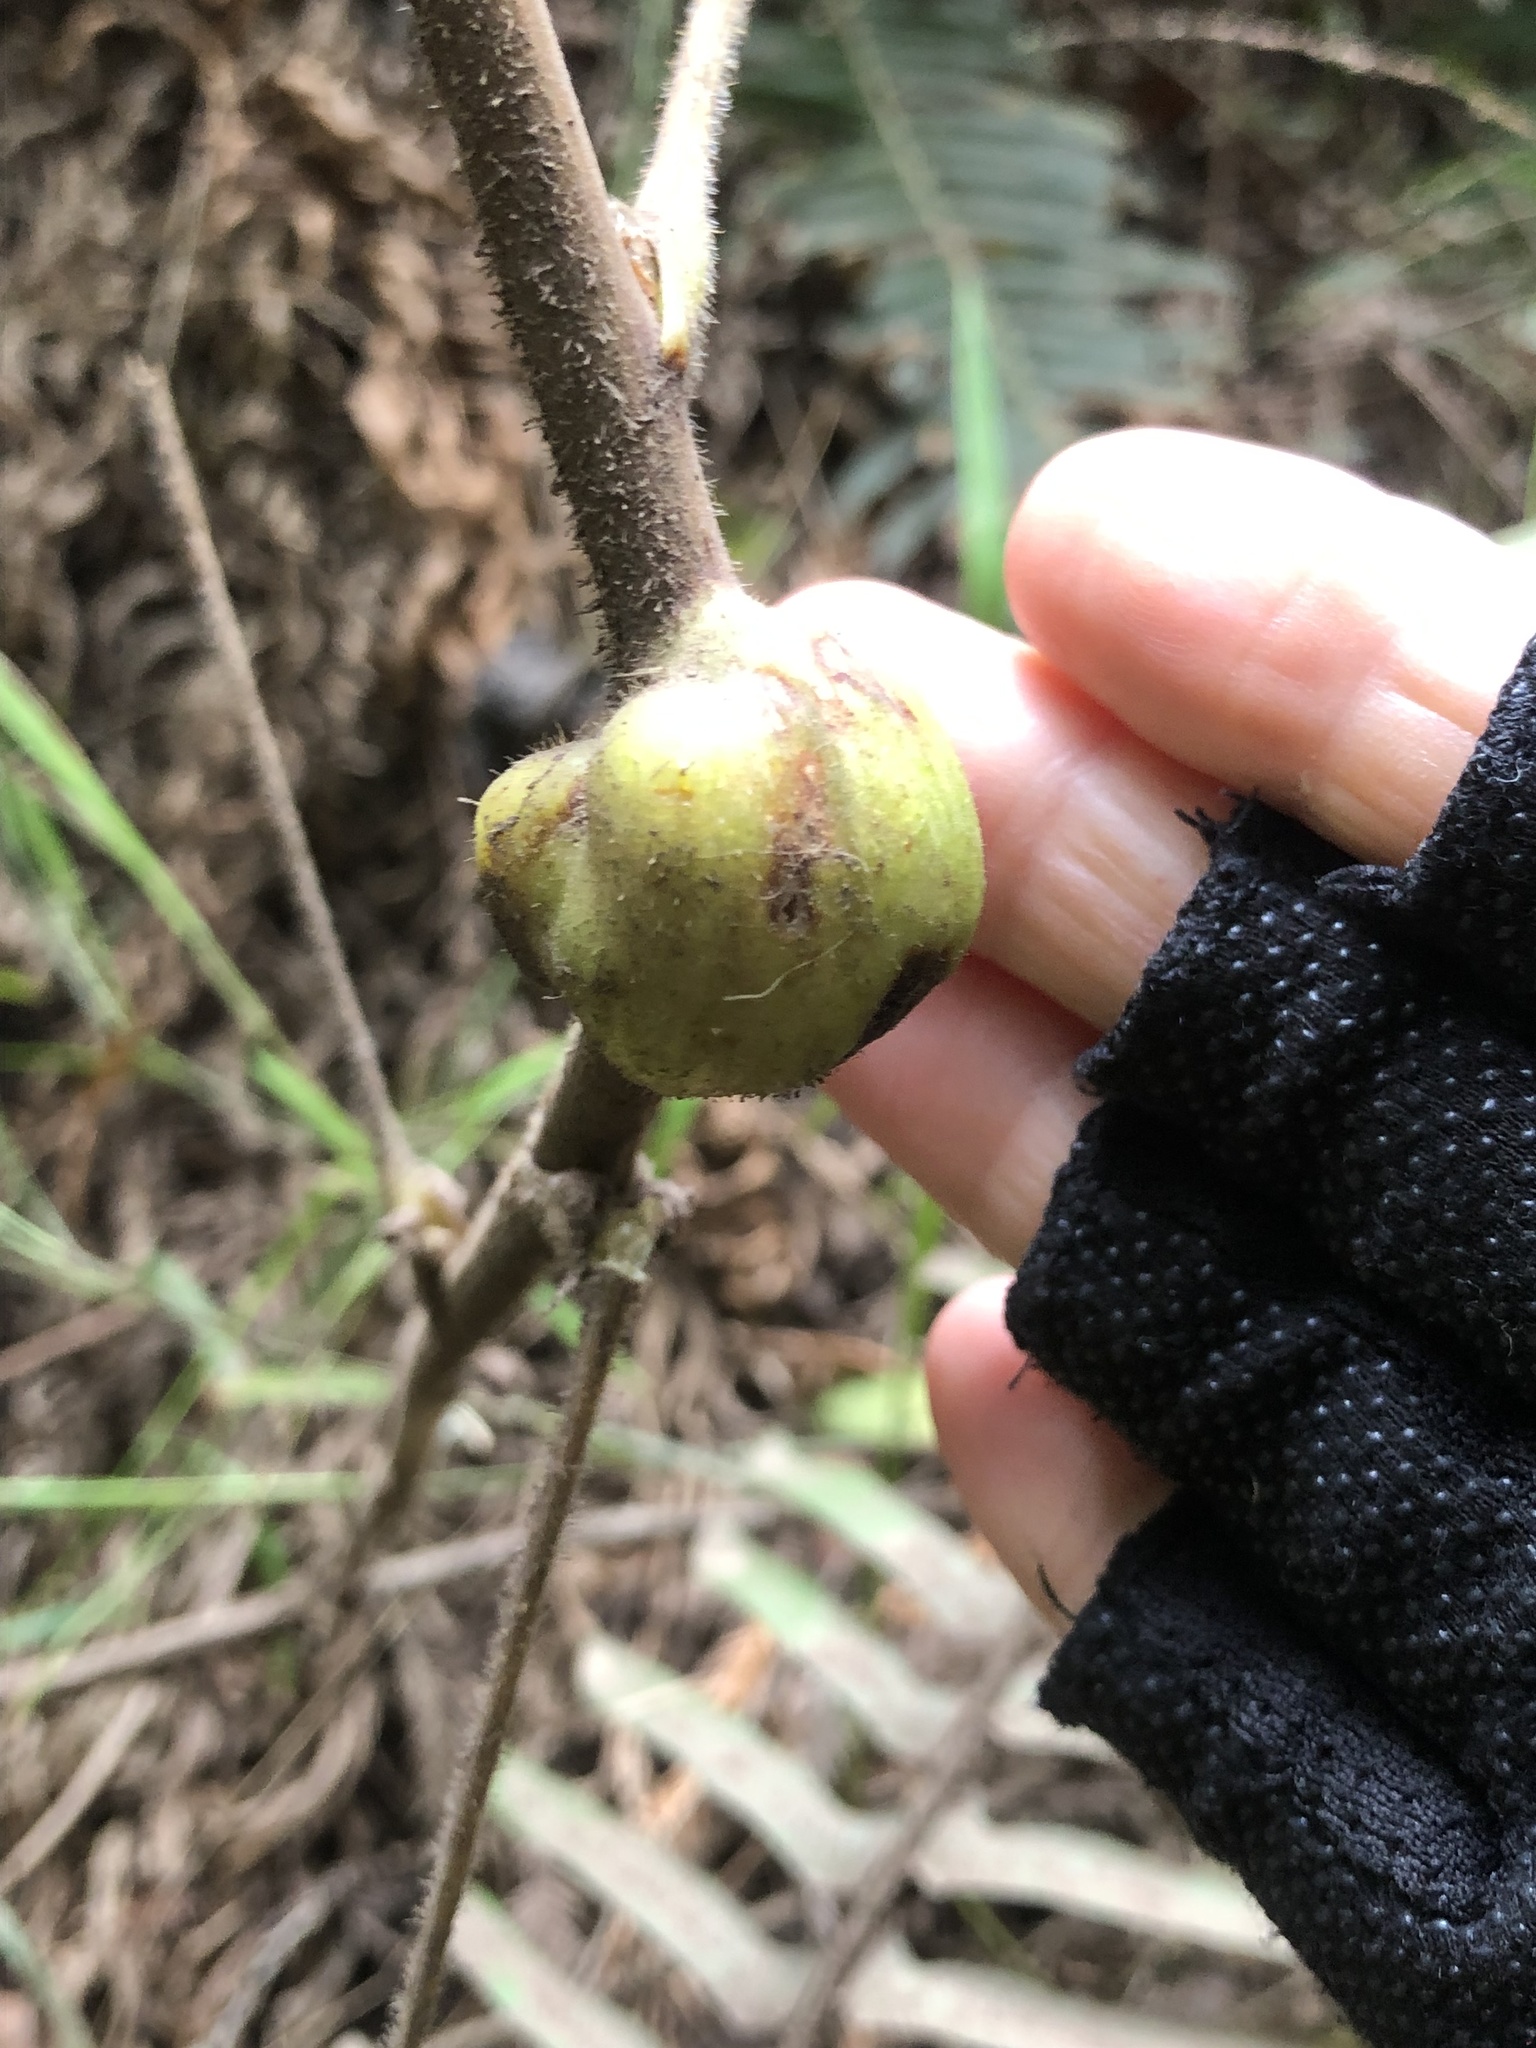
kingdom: Animalia
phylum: Arthropoda
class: Insecta
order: Hymenoptera
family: Cynipidae
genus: Diastrophus
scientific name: Diastrophus
